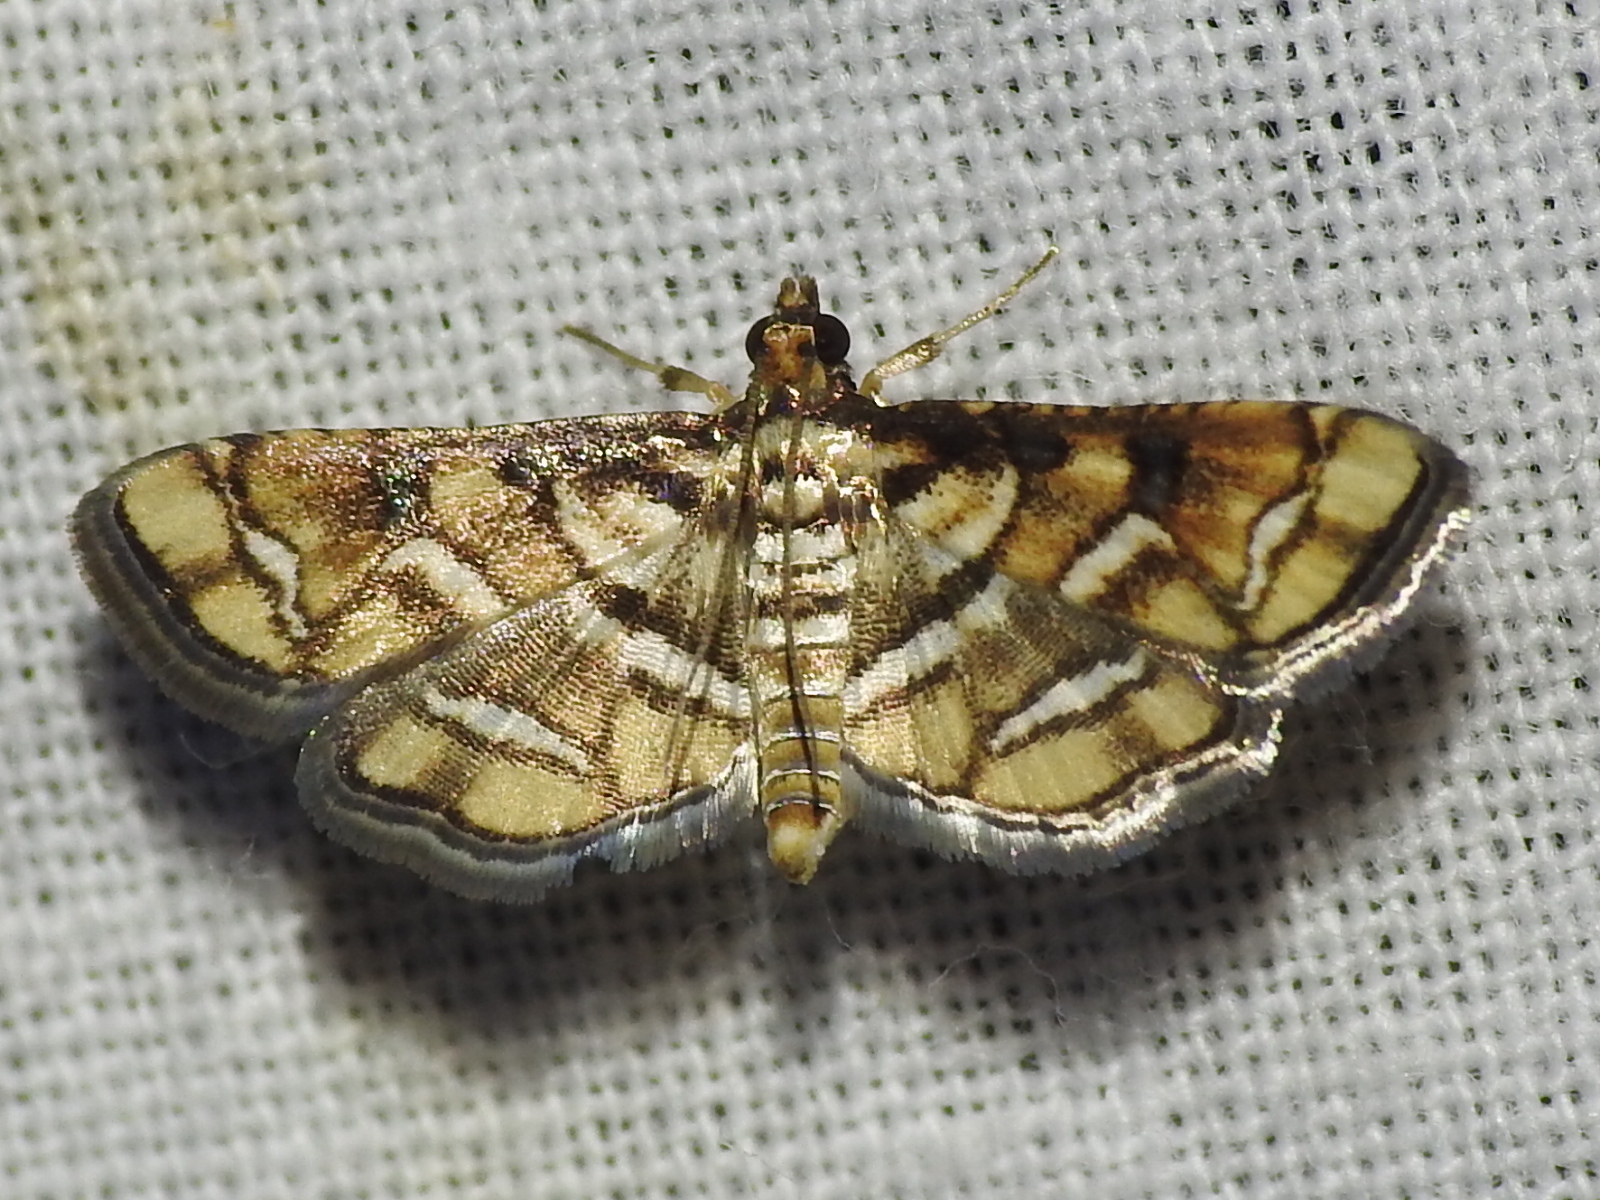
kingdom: Animalia
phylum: Arthropoda
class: Insecta
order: Lepidoptera
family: Crambidae
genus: Hileithia
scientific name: Hileithia magualis
